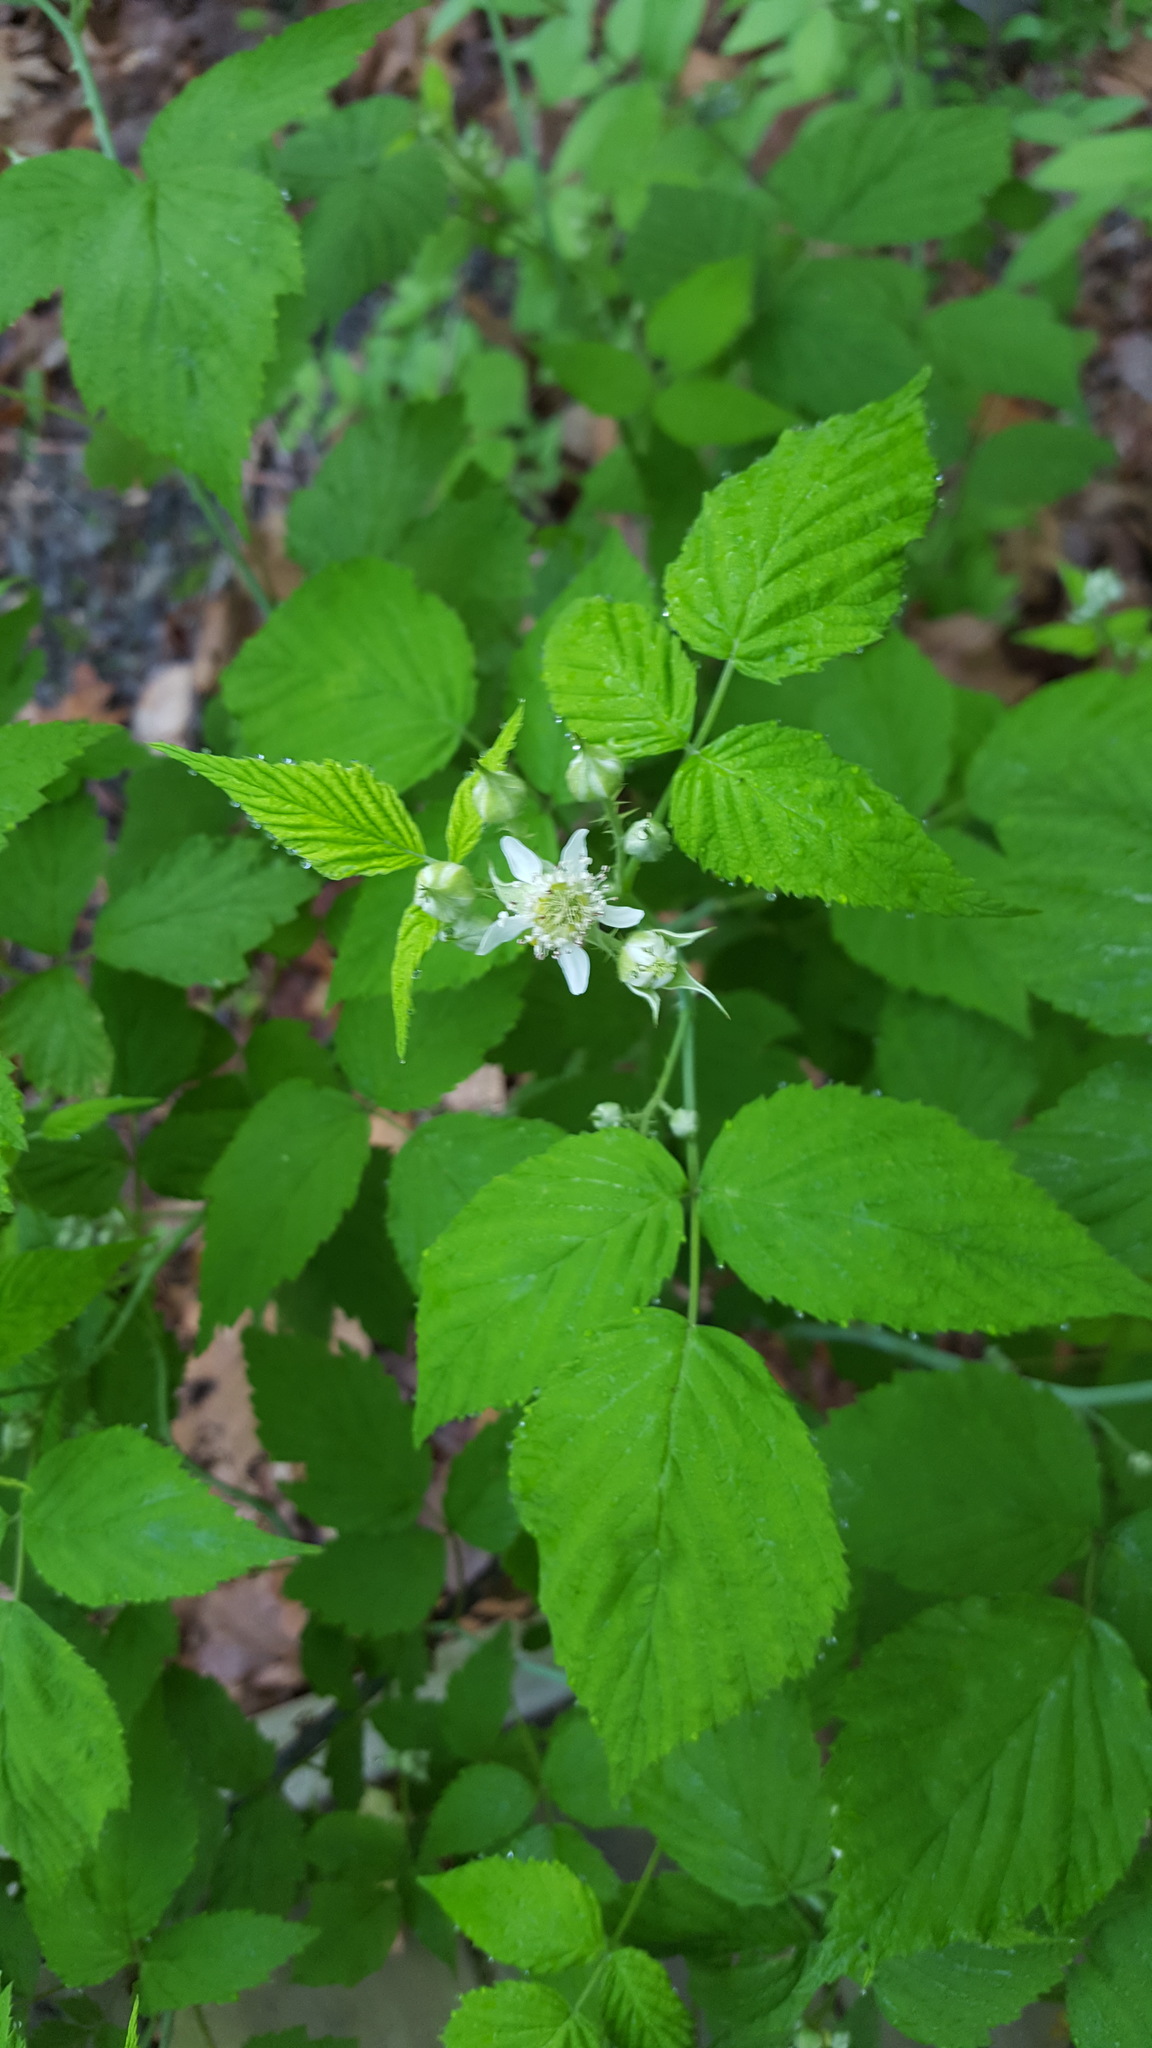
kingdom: Plantae
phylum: Tracheophyta
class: Magnoliopsida
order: Rosales
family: Rosaceae
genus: Rubus
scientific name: Rubus occidentalis
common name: Black raspberry
